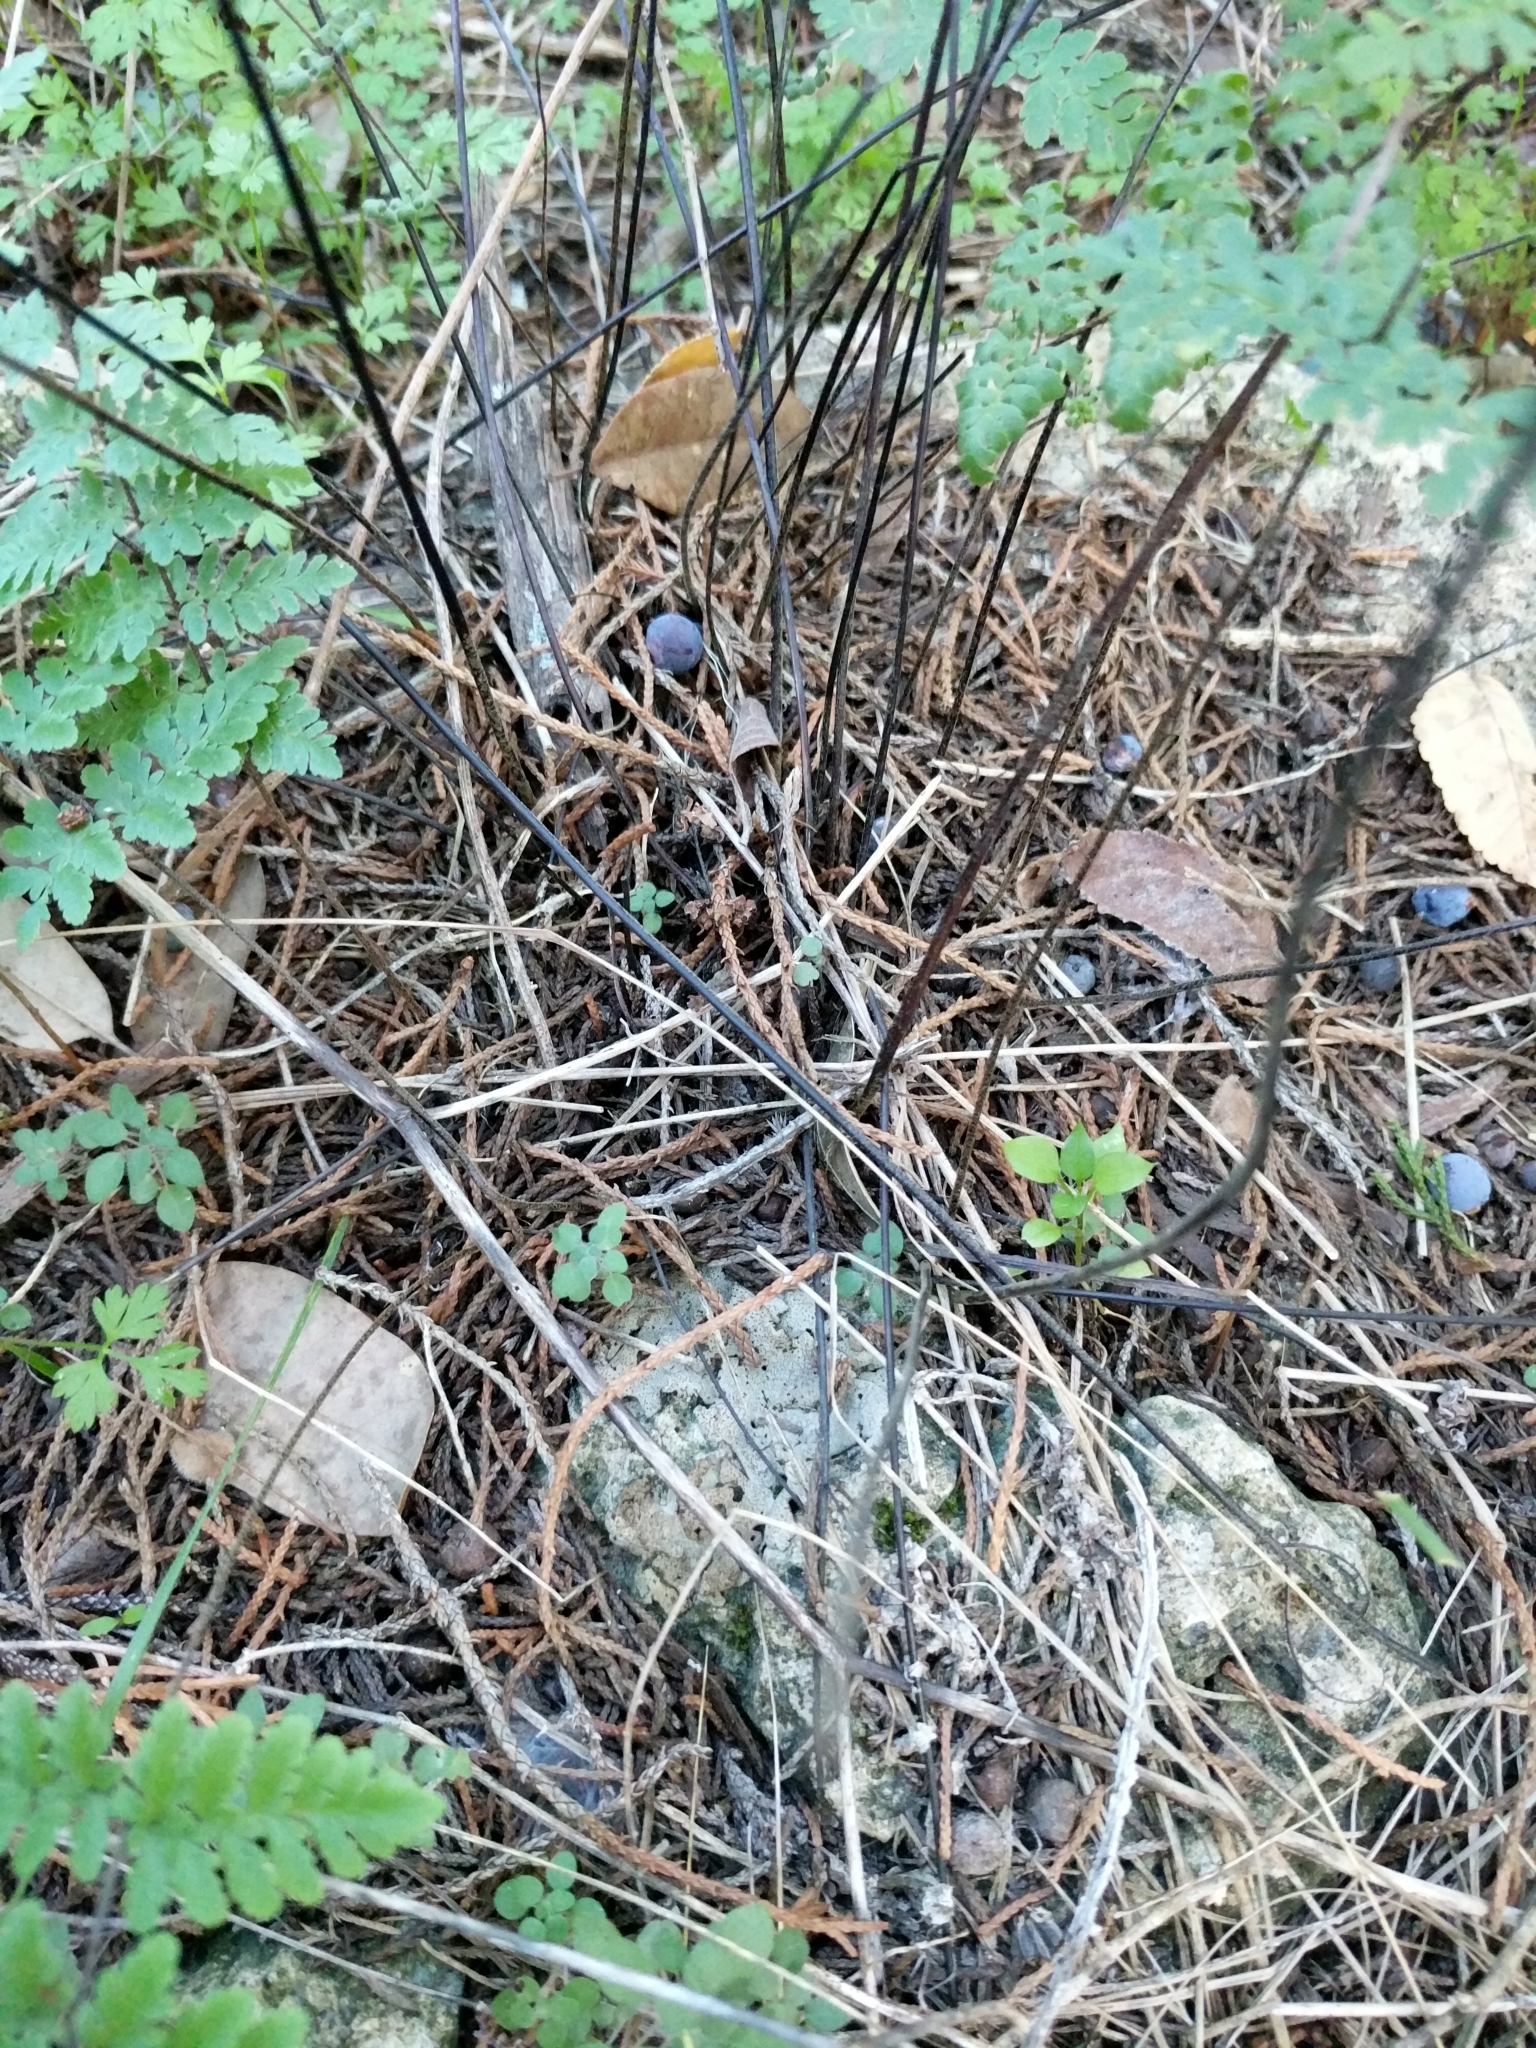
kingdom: Plantae
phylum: Tracheophyta
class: Polypodiopsida
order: Polypodiales
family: Pteridaceae
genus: Myriopteris
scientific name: Myriopteris alabamensis
